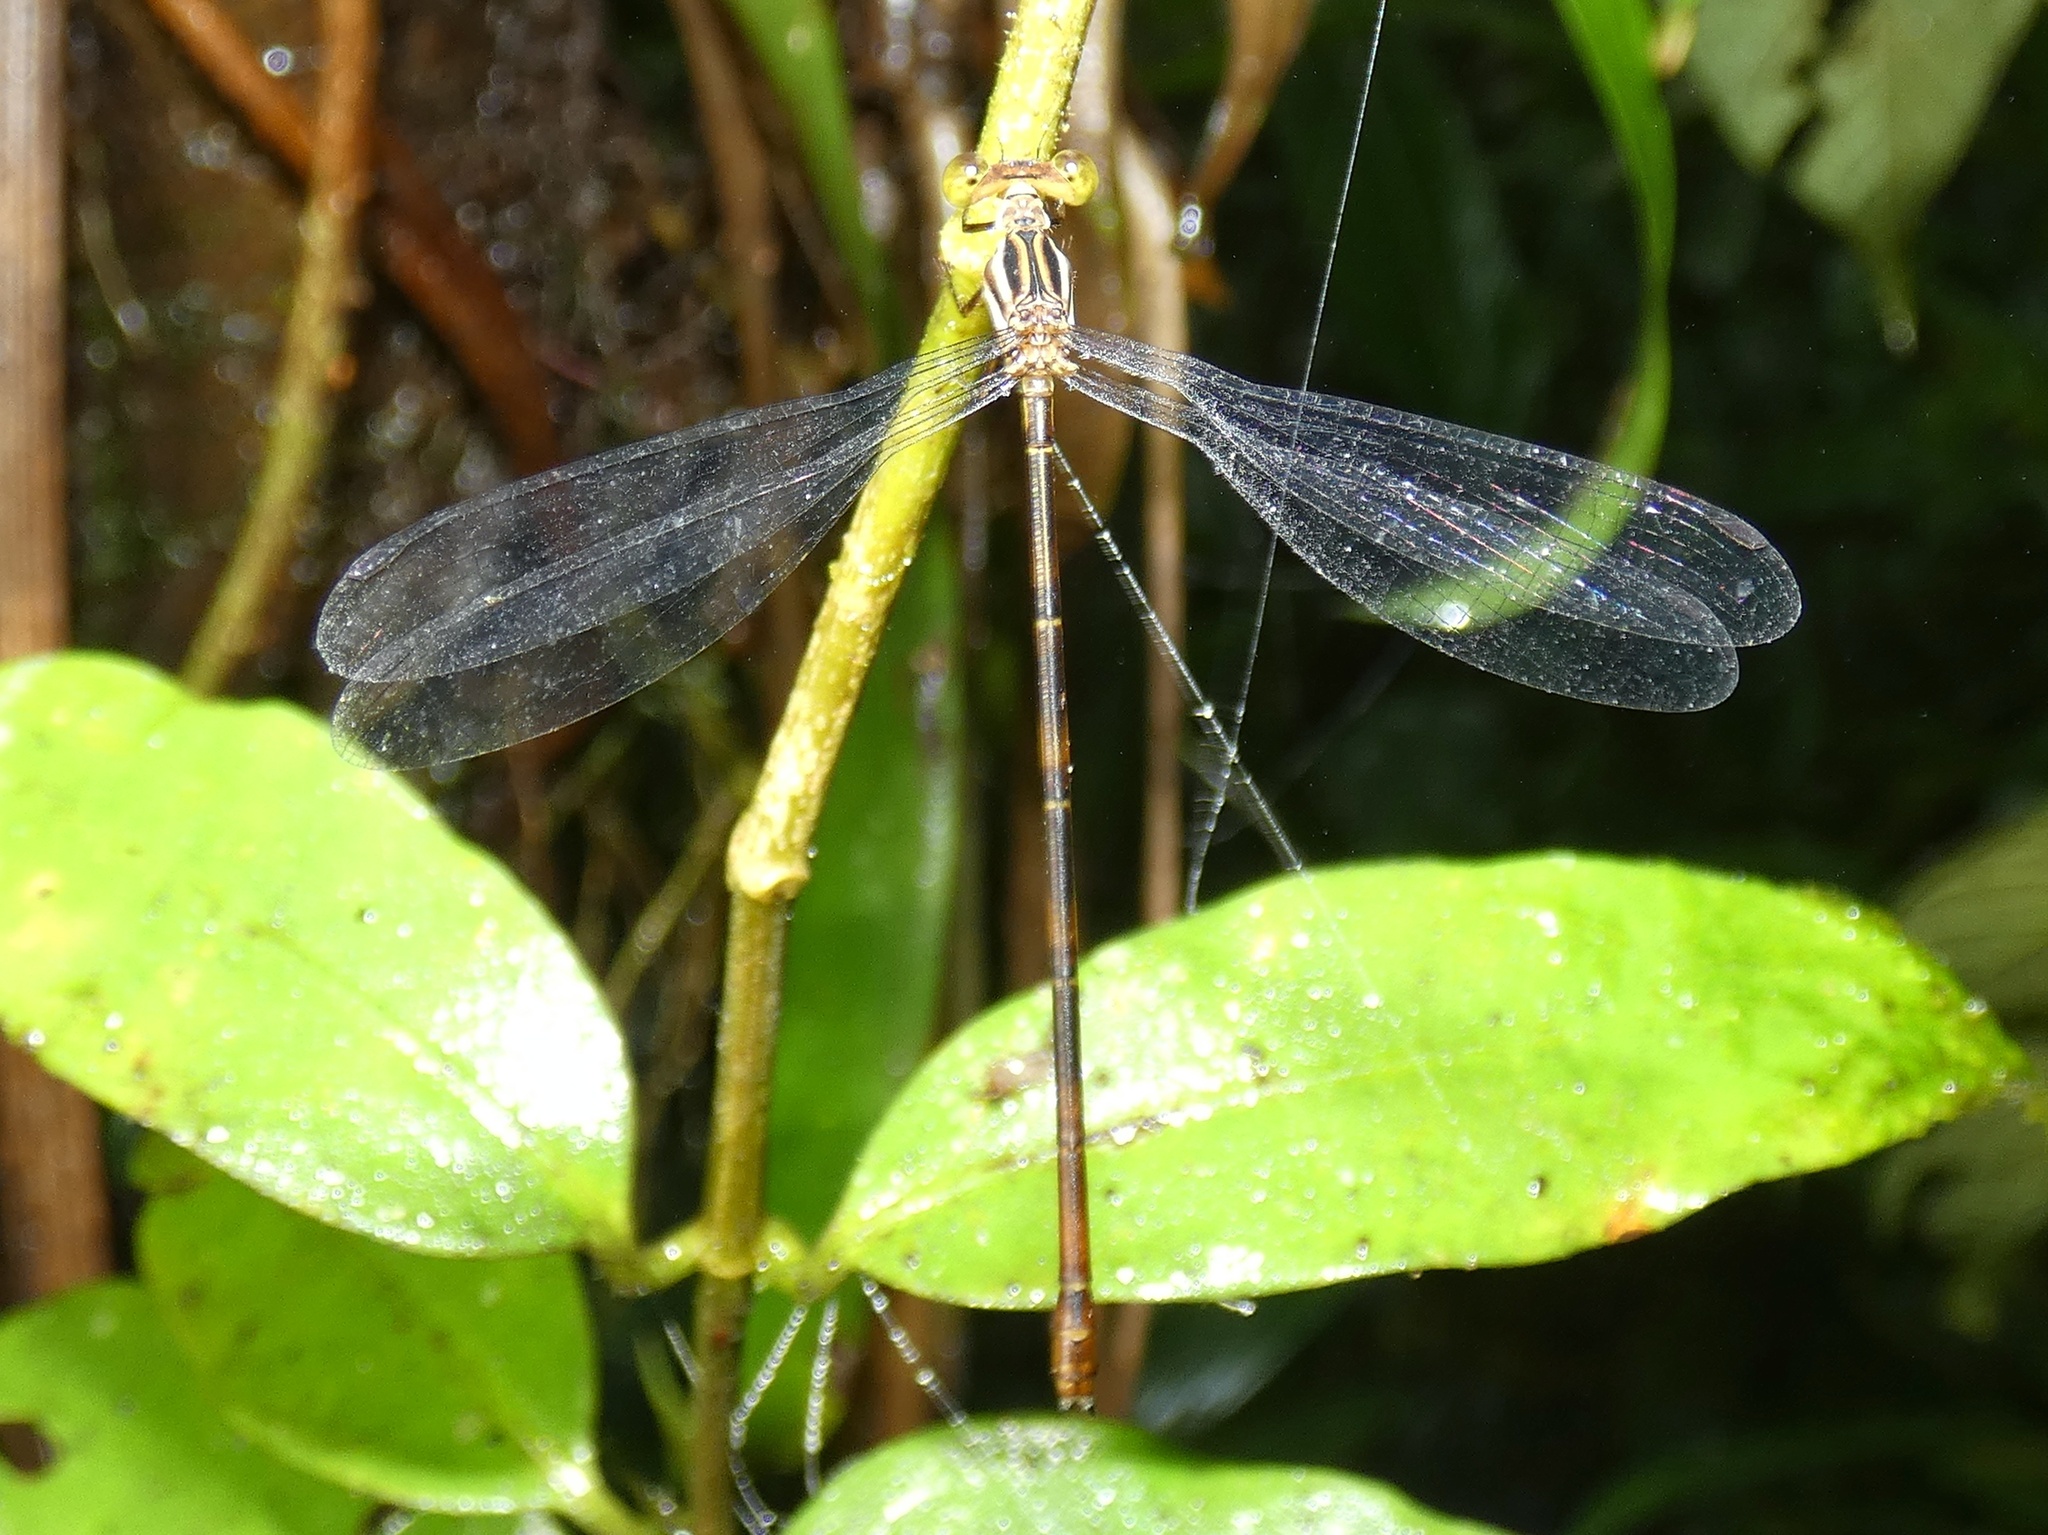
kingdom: Animalia
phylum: Arthropoda
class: Insecta
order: Odonata
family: Heteragrionidae
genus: Heteragrion
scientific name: Heteragrion erythrogastrum
